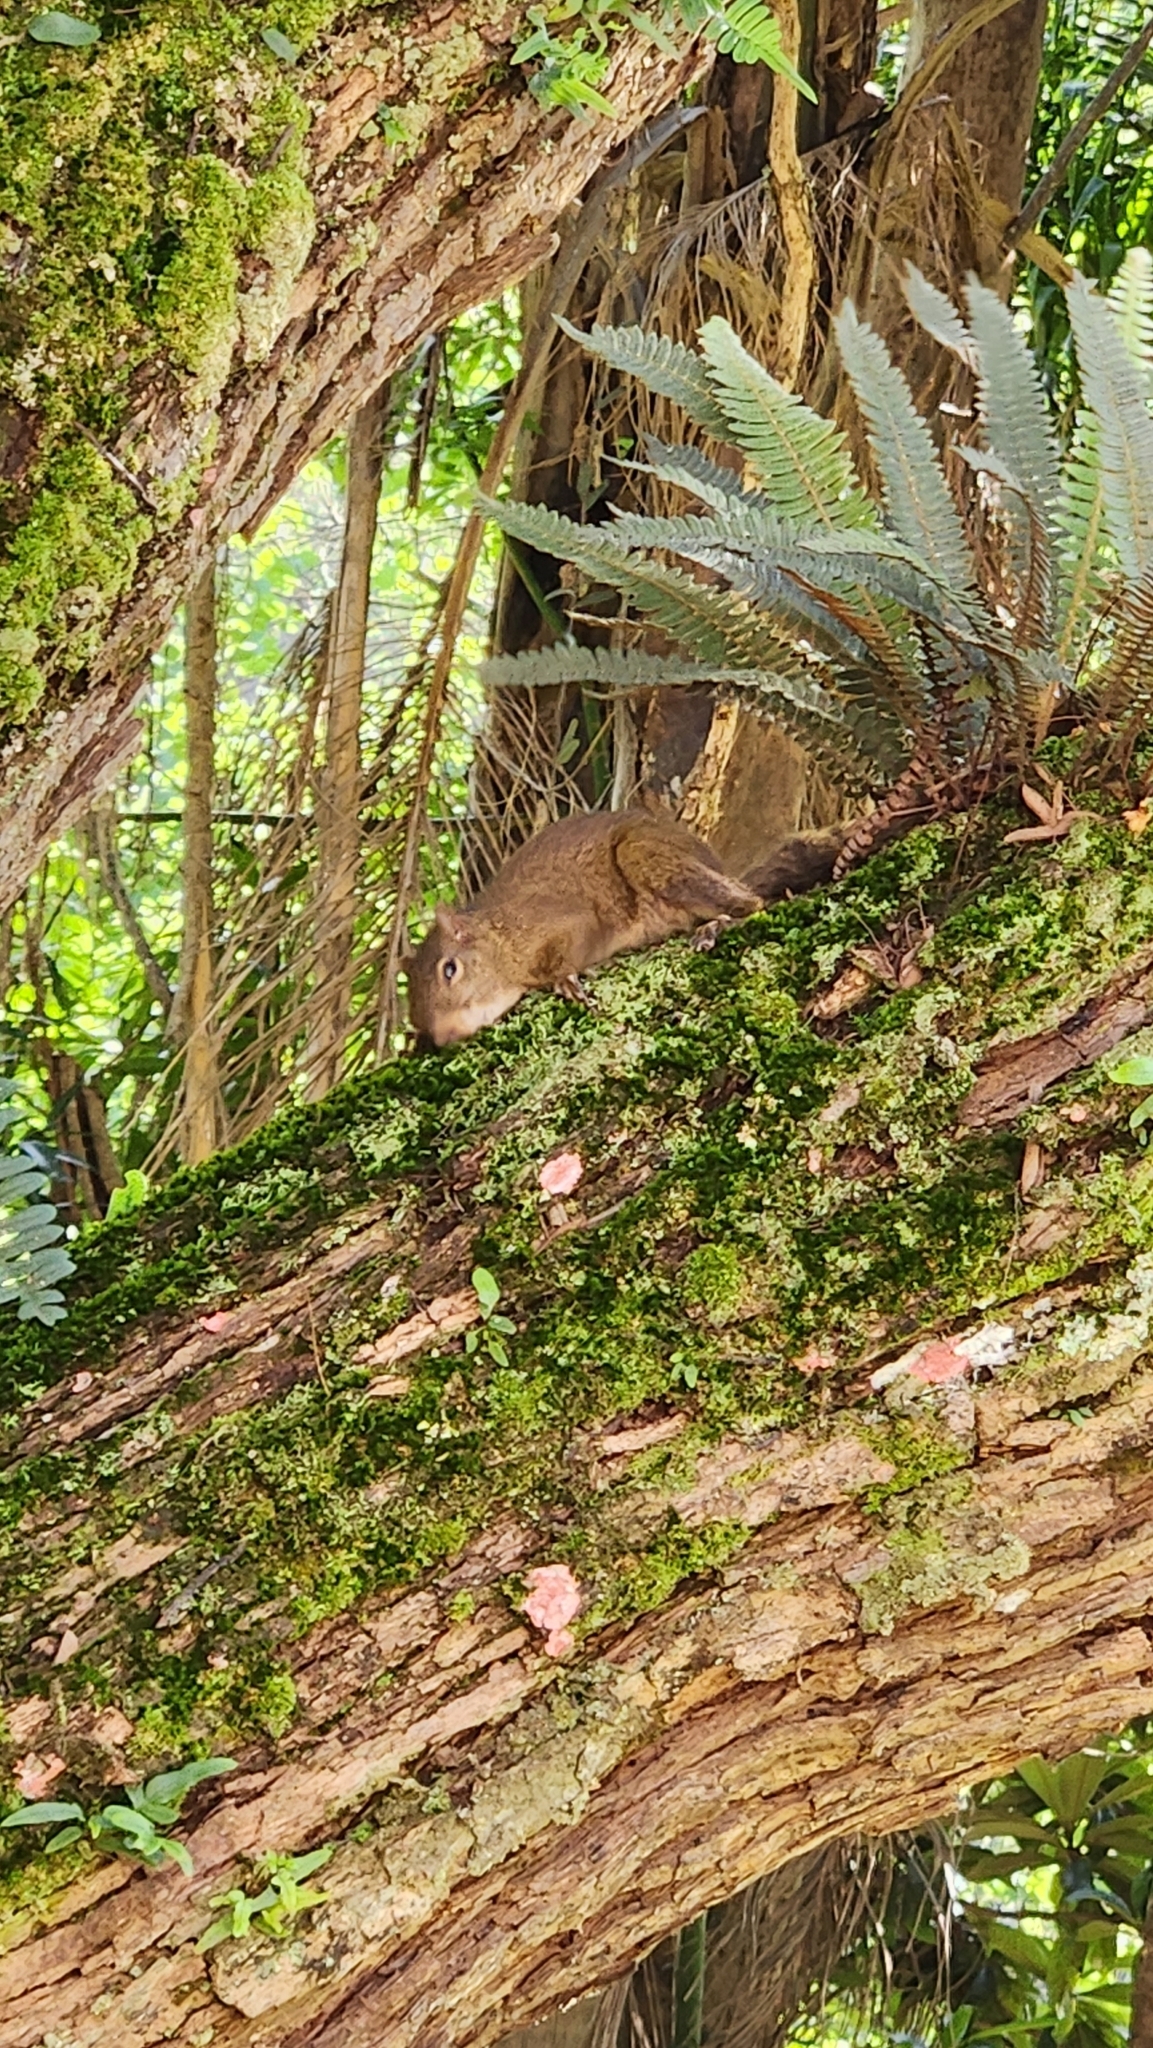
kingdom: Animalia
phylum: Chordata
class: Mammalia
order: Rodentia
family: Sciuridae
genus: Sciurus
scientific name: Sciurus aestuans
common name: Guianan squirrel
